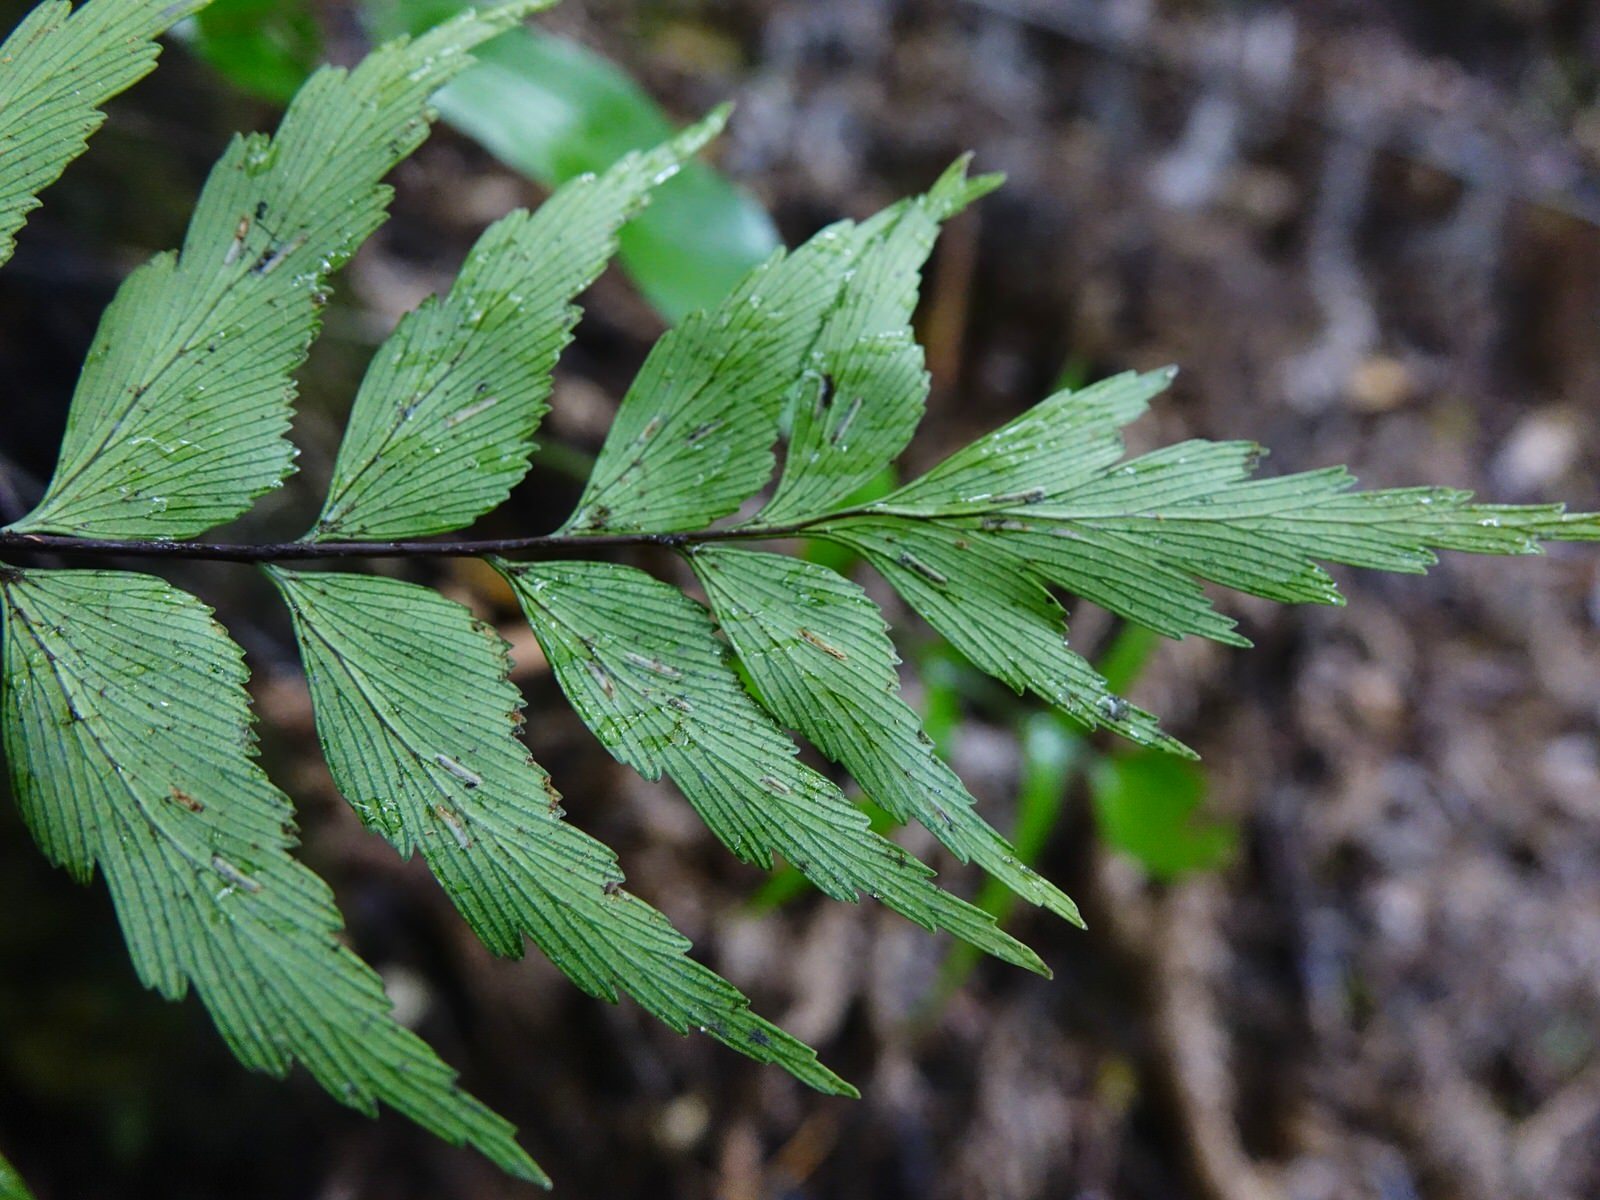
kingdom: Plantae
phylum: Tracheophyta
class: Polypodiopsida
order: Polypodiales
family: Aspleniaceae
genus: Asplenium
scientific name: Asplenium polyodon
